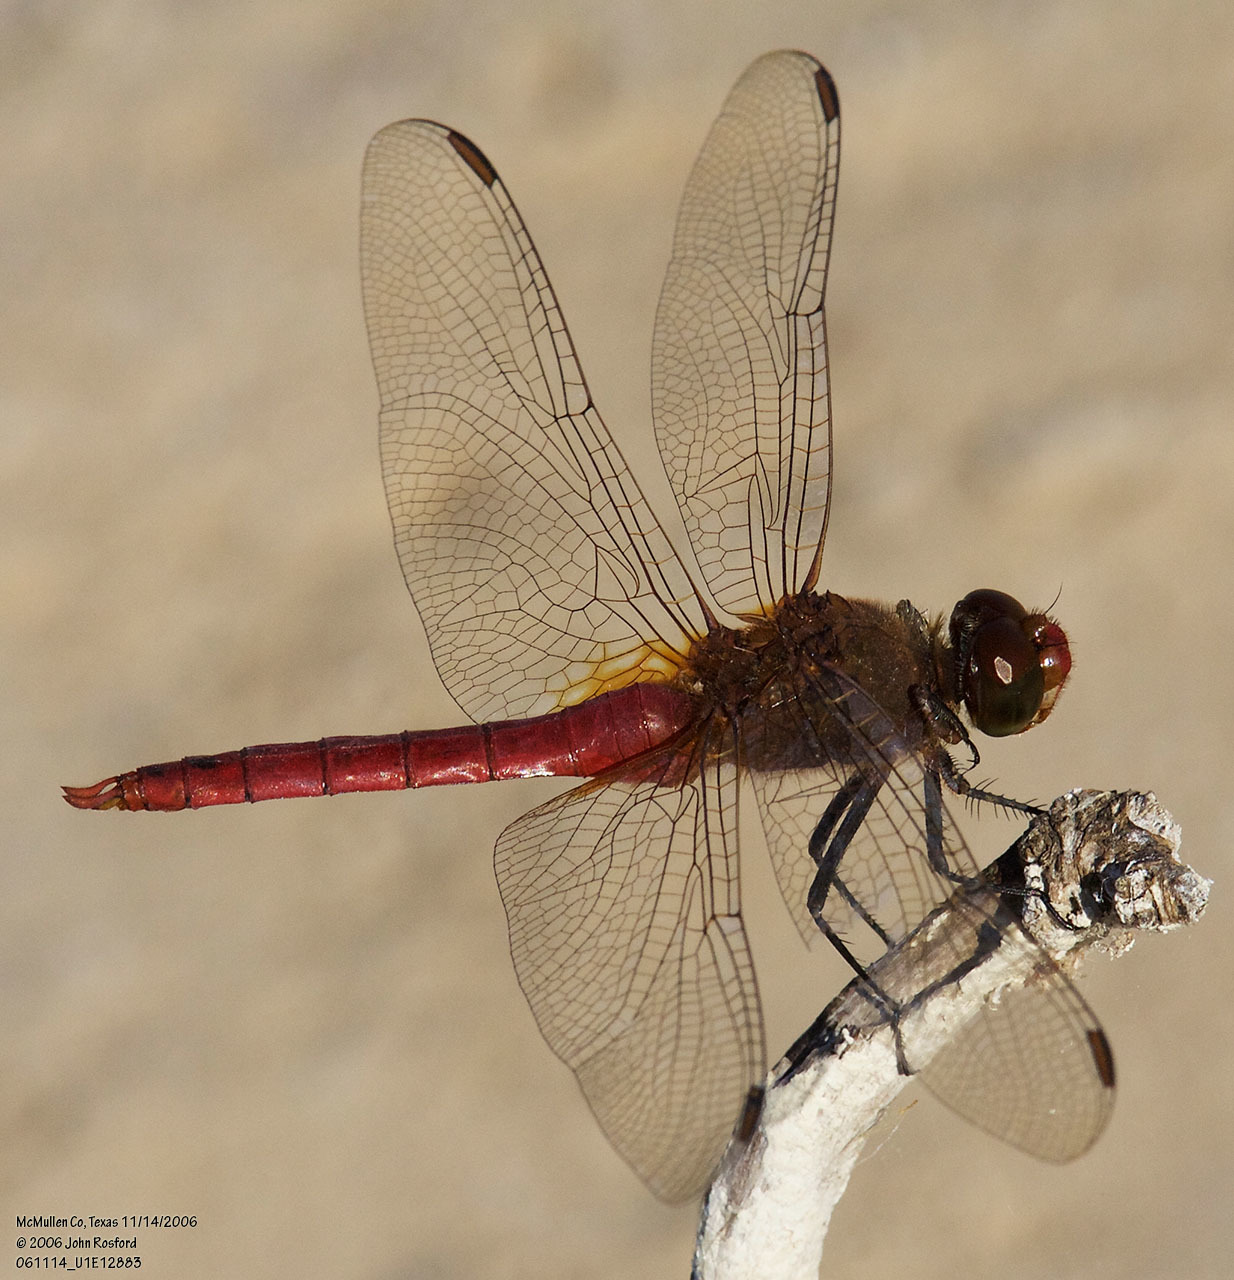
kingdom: Animalia
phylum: Arthropoda
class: Insecta
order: Odonata
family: Libellulidae
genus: Brachymesia
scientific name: Brachymesia furcata
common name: Red-taled pennant
